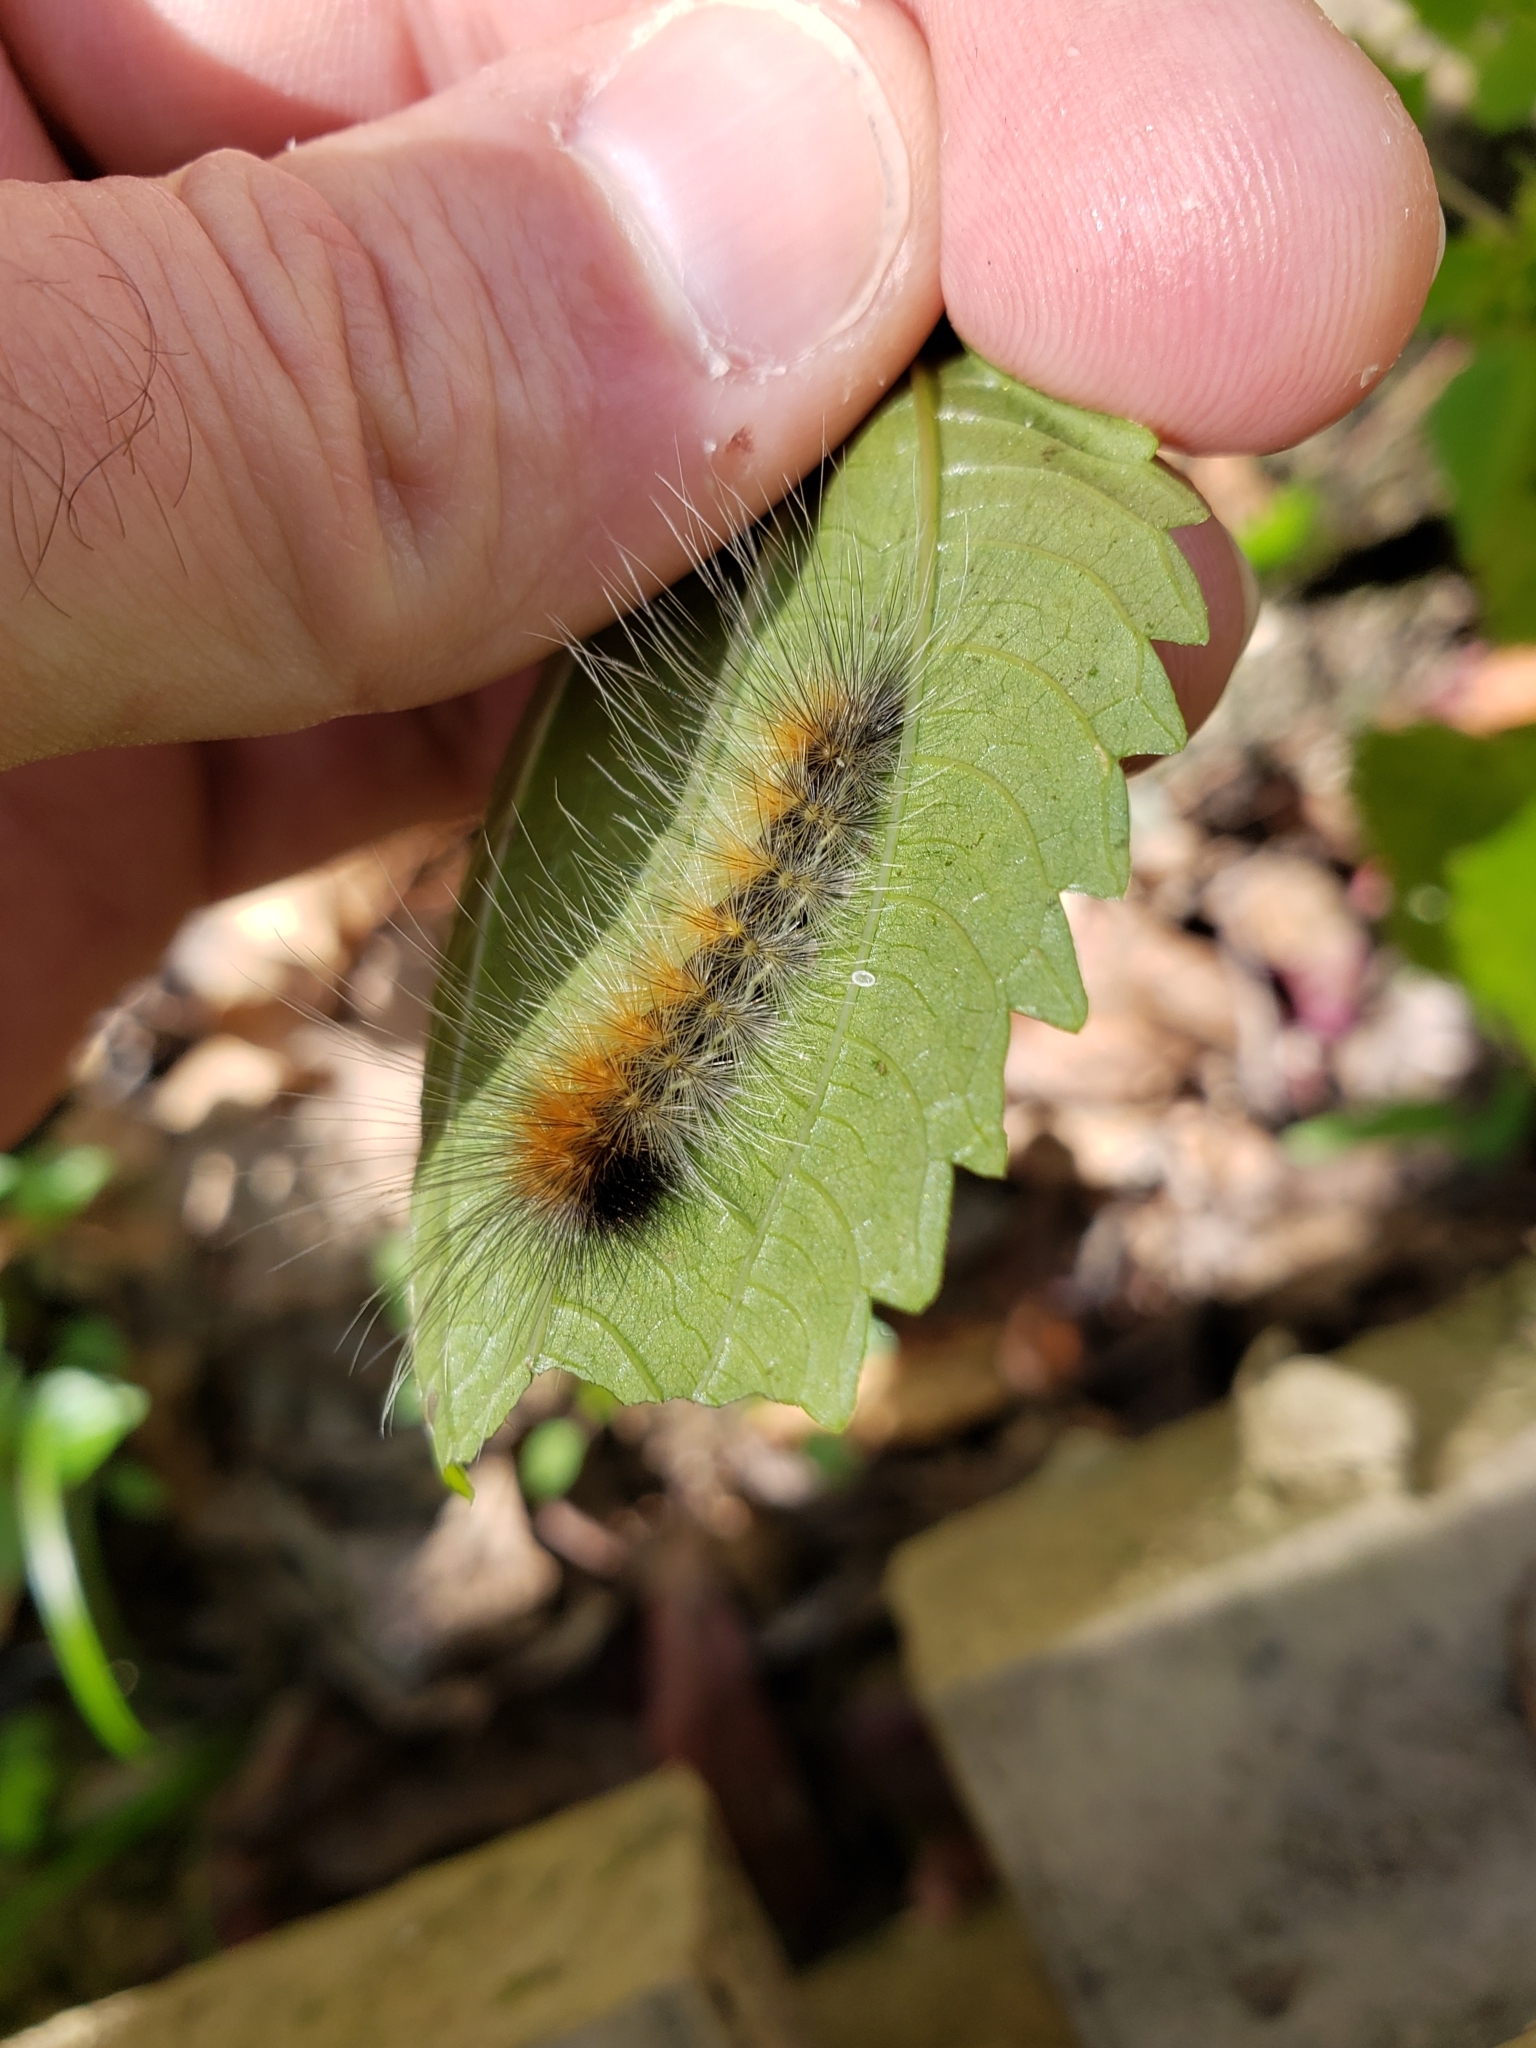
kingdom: Animalia
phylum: Arthropoda
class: Insecta
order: Lepidoptera
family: Erebidae
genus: Spilosoma
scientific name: Spilosoma virginica
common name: Virginia tiger moth
